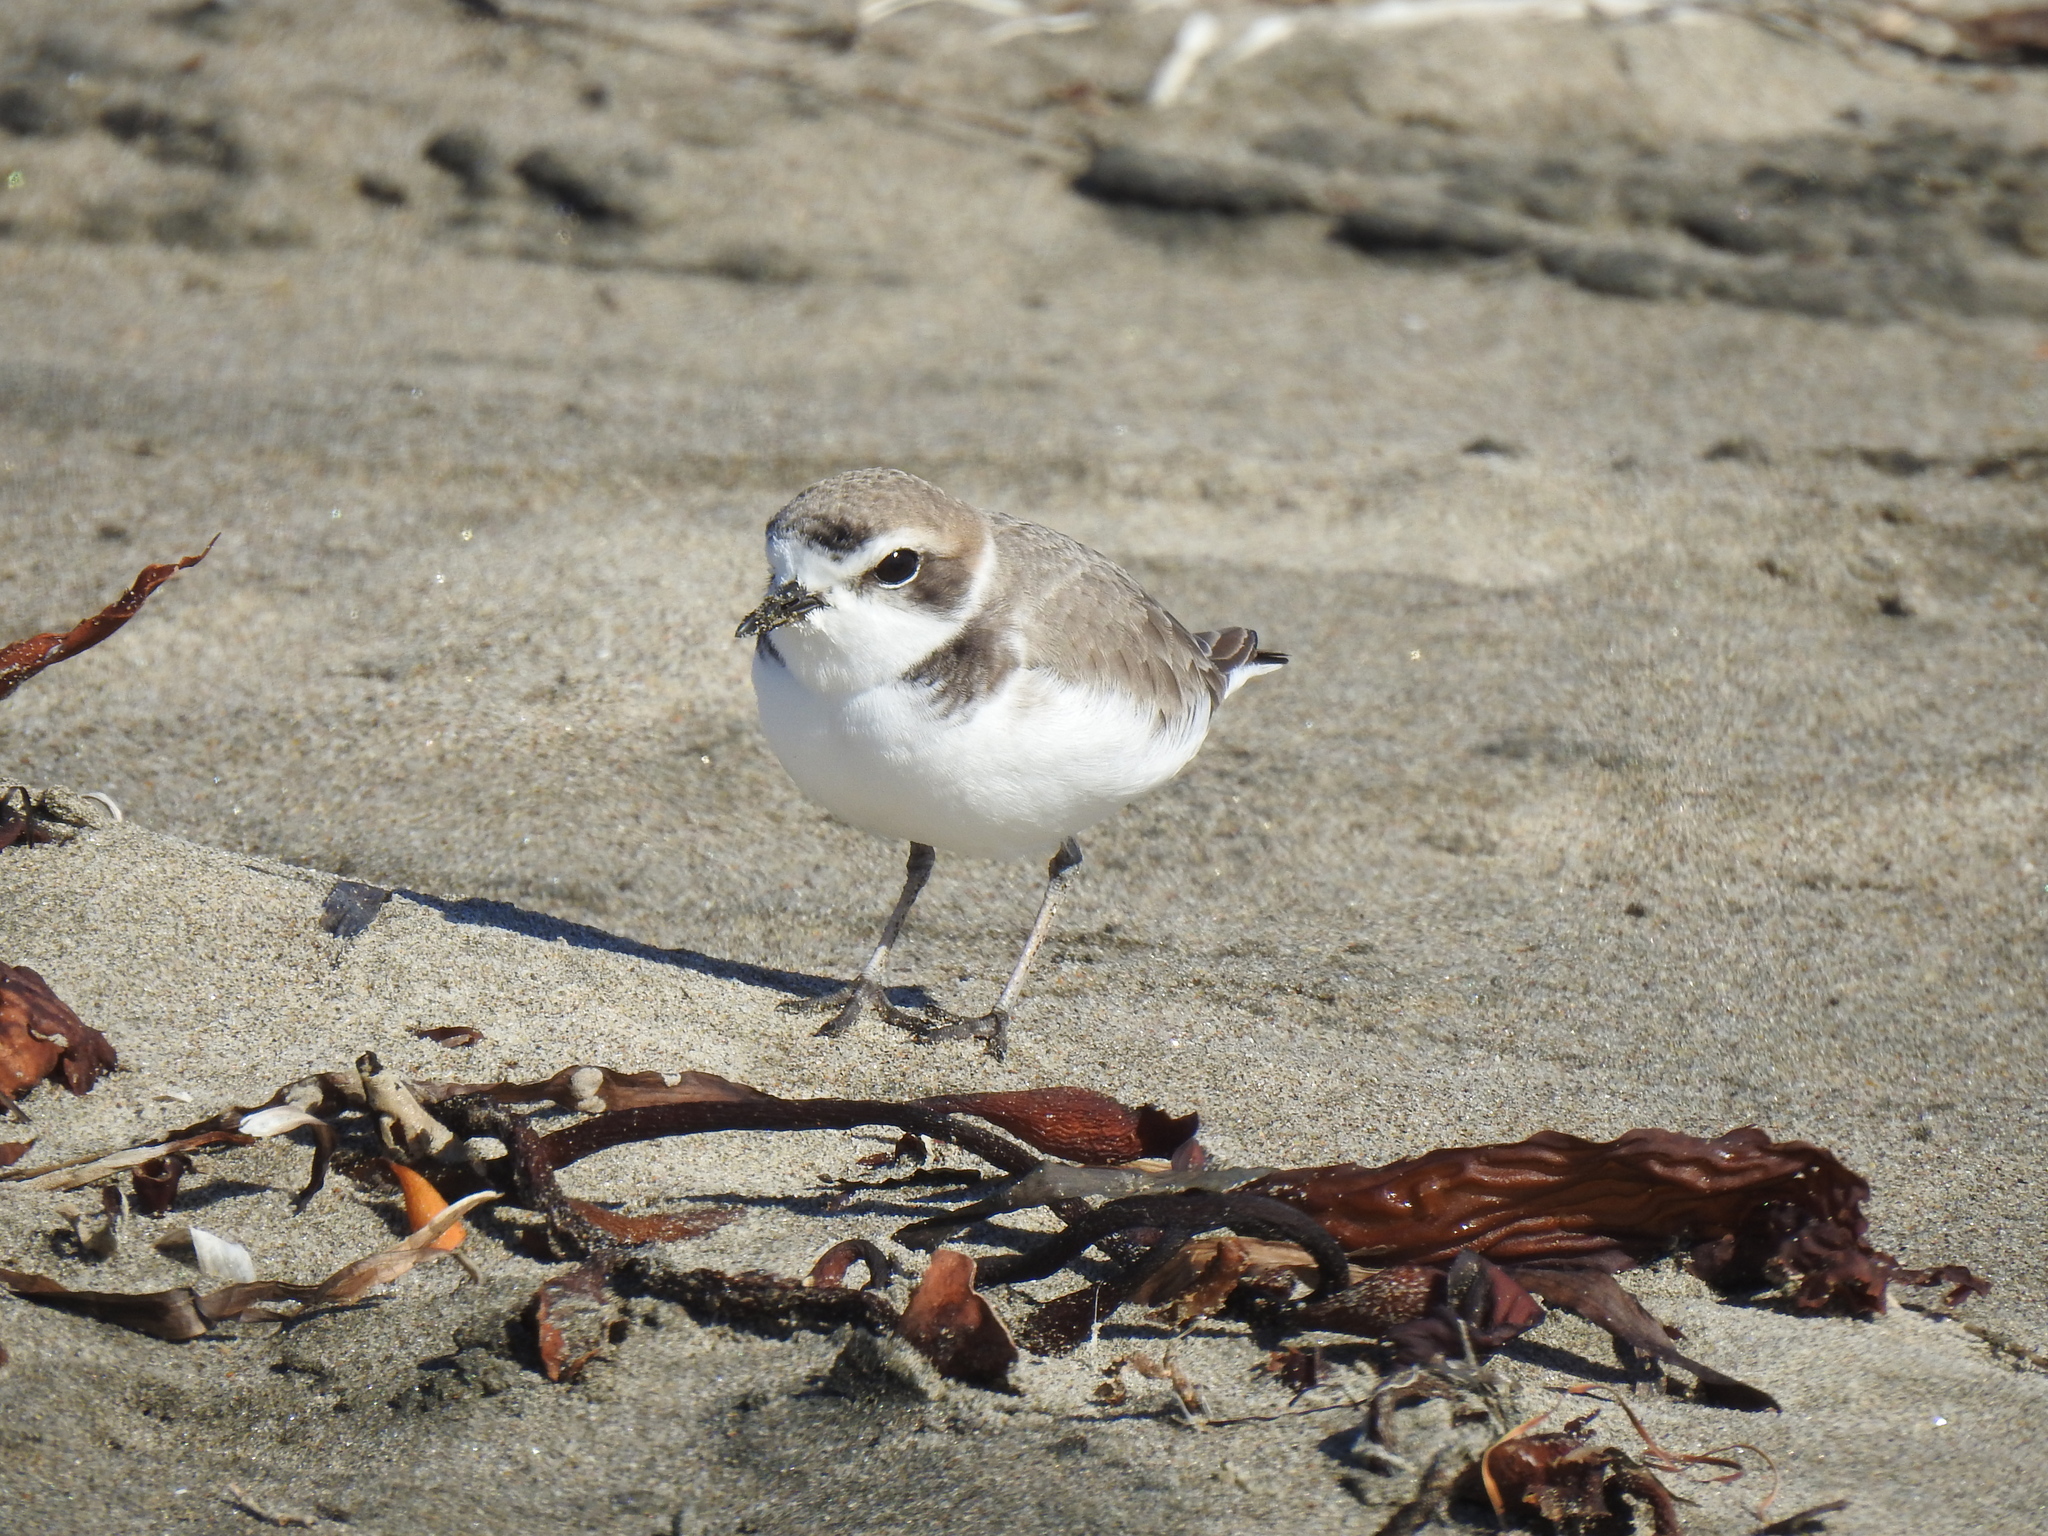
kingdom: Animalia
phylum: Chordata
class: Aves
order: Charadriiformes
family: Charadriidae
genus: Anarhynchus
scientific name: Anarhynchus
